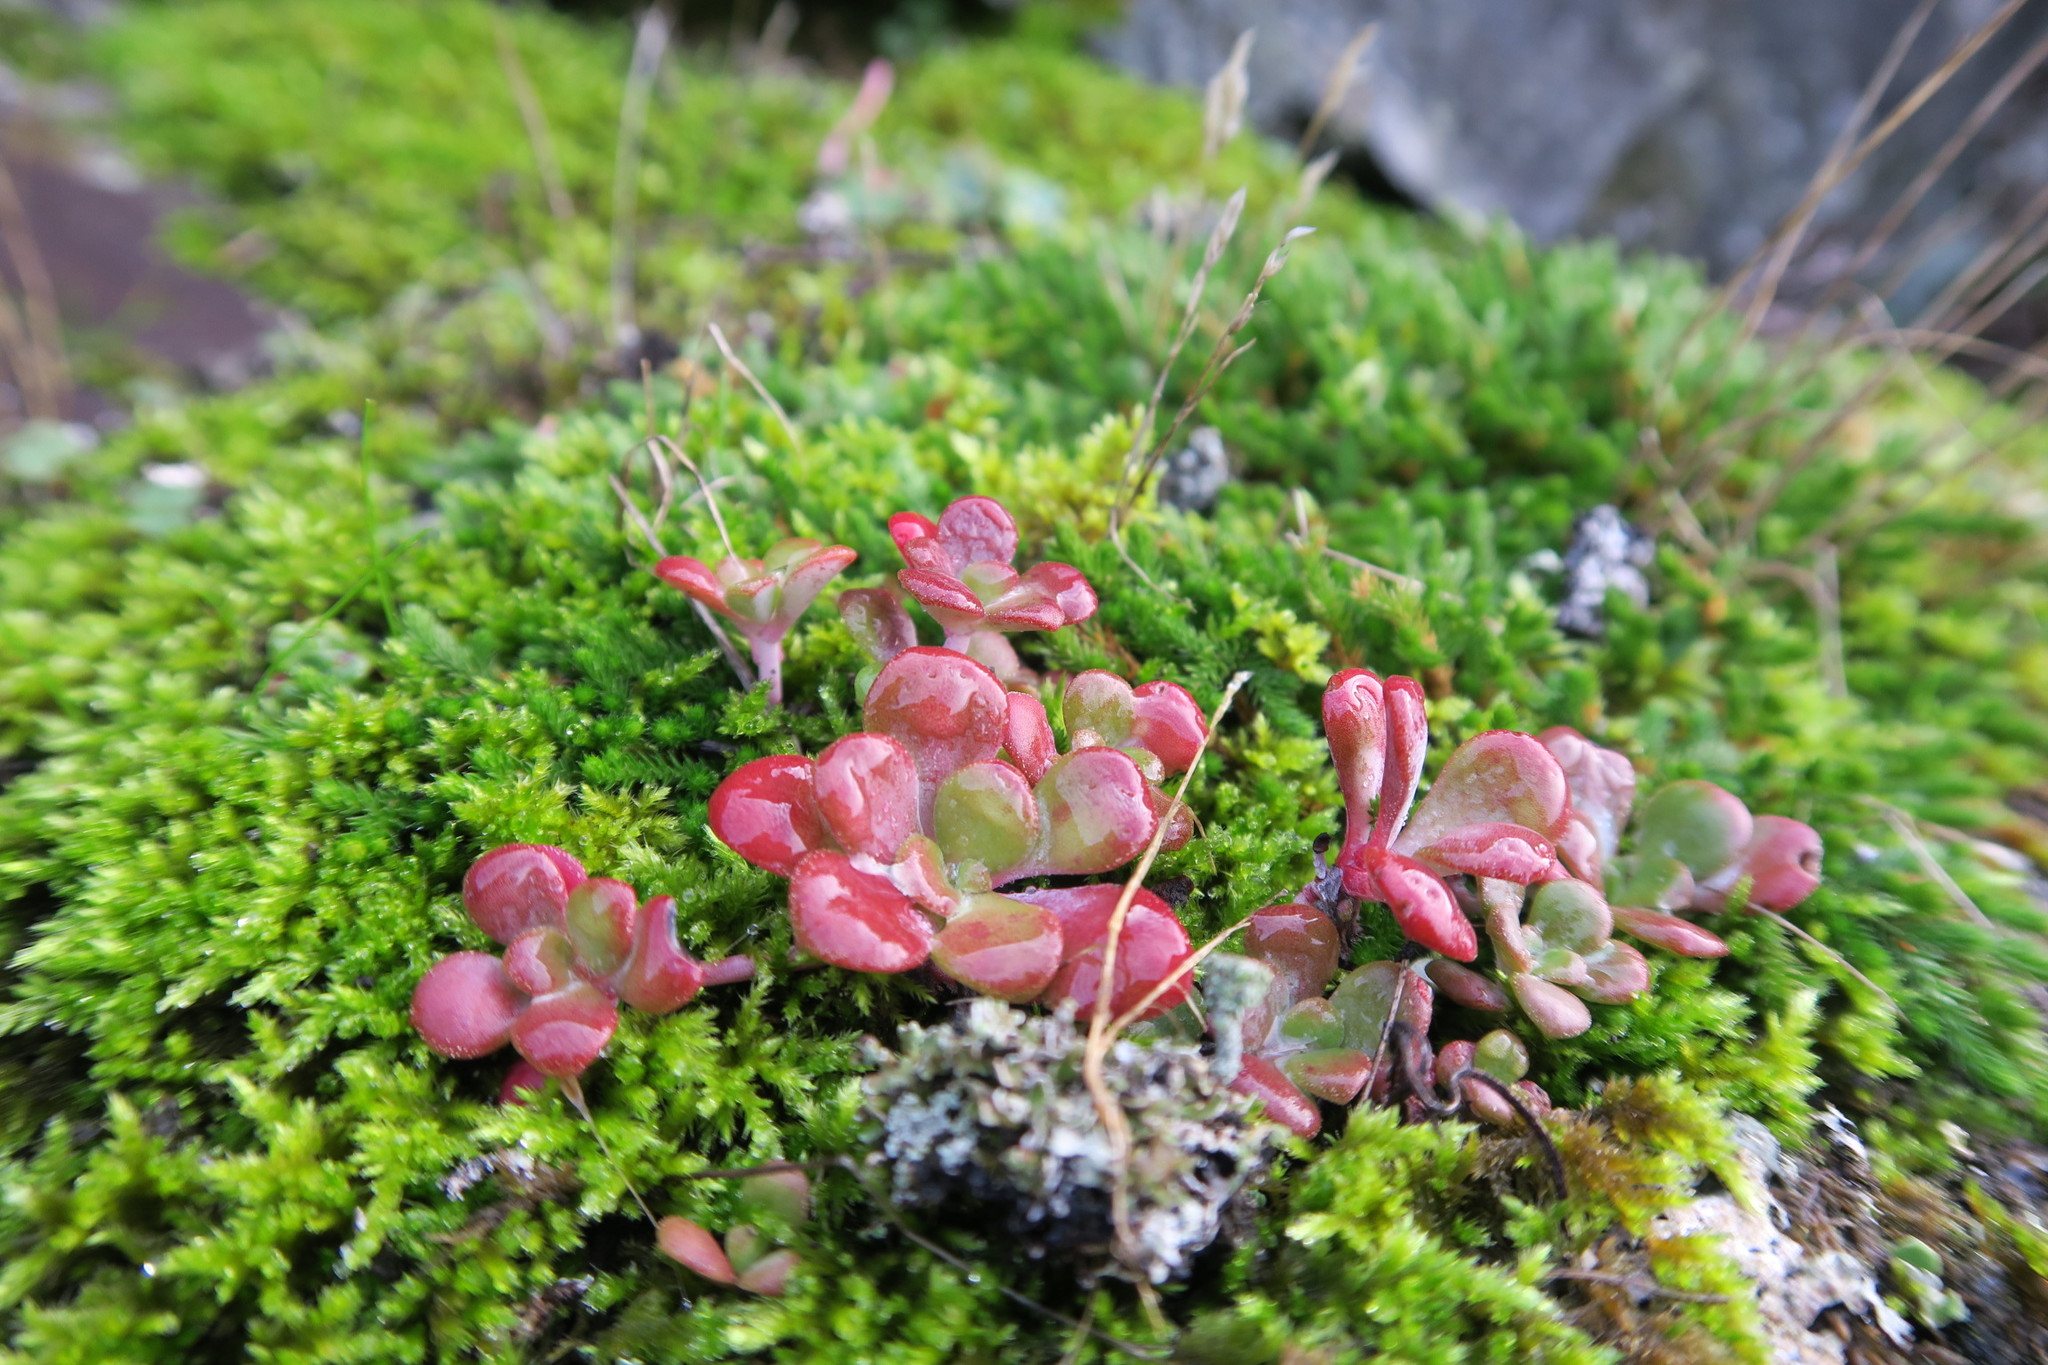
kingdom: Plantae
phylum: Tracheophyta
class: Magnoliopsida
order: Saxifragales
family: Crassulaceae
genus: Sedum
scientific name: Sedum spathulifolium
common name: Colorado stonecrop
